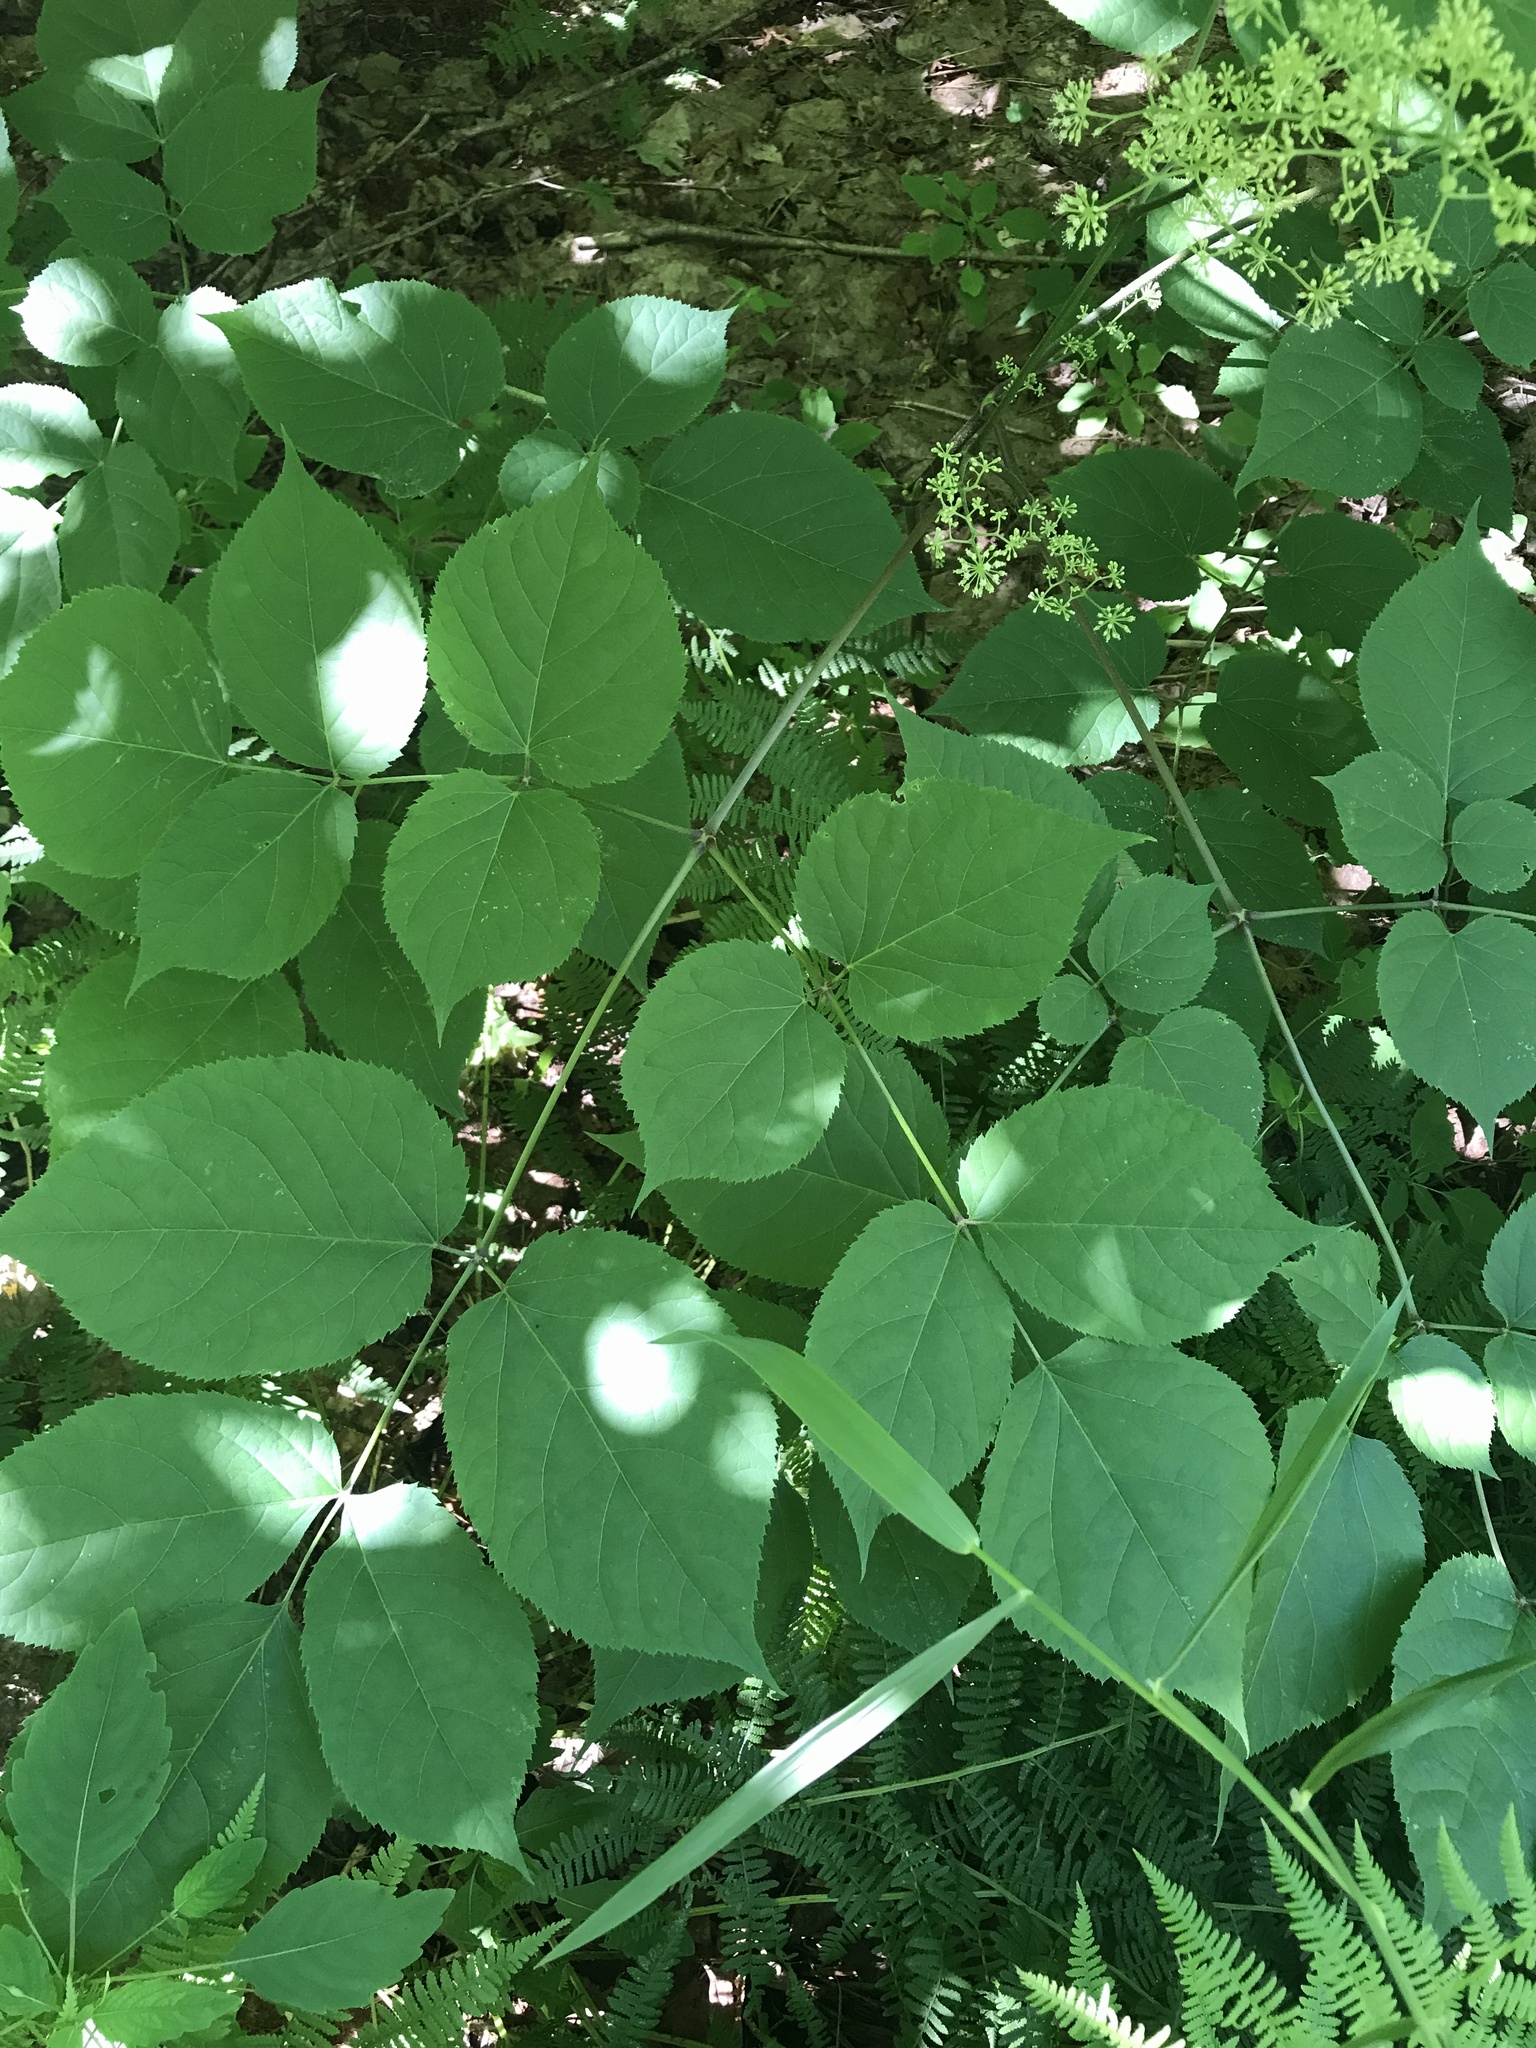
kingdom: Plantae
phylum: Tracheophyta
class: Magnoliopsida
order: Apiales
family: Araliaceae
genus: Aralia
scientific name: Aralia racemosa
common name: American-spikenard
